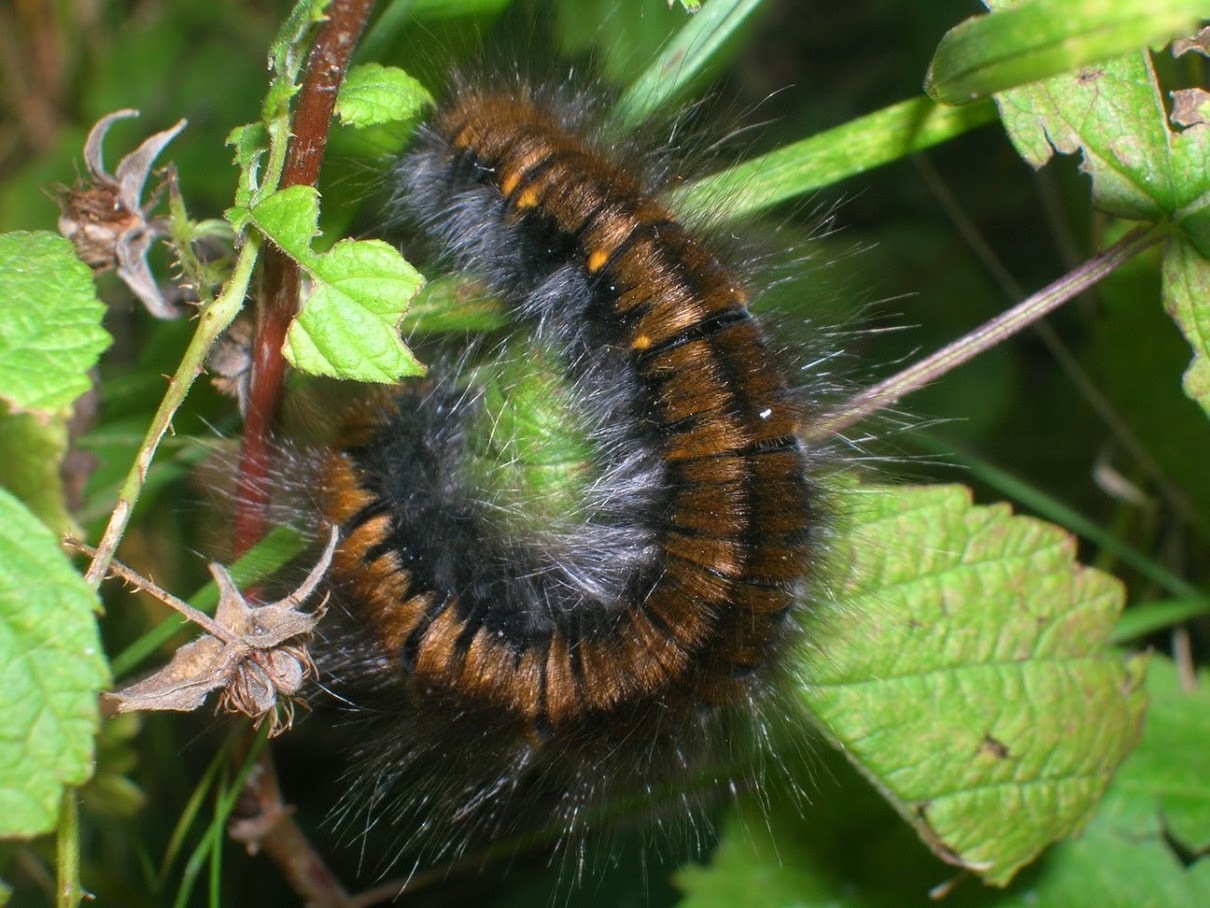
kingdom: Animalia
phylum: Arthropoda
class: Insecta
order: Lepidoptera
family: Lasiocampidae
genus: Macrothylacia
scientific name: Macrothylacia rubi
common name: Fox moth
